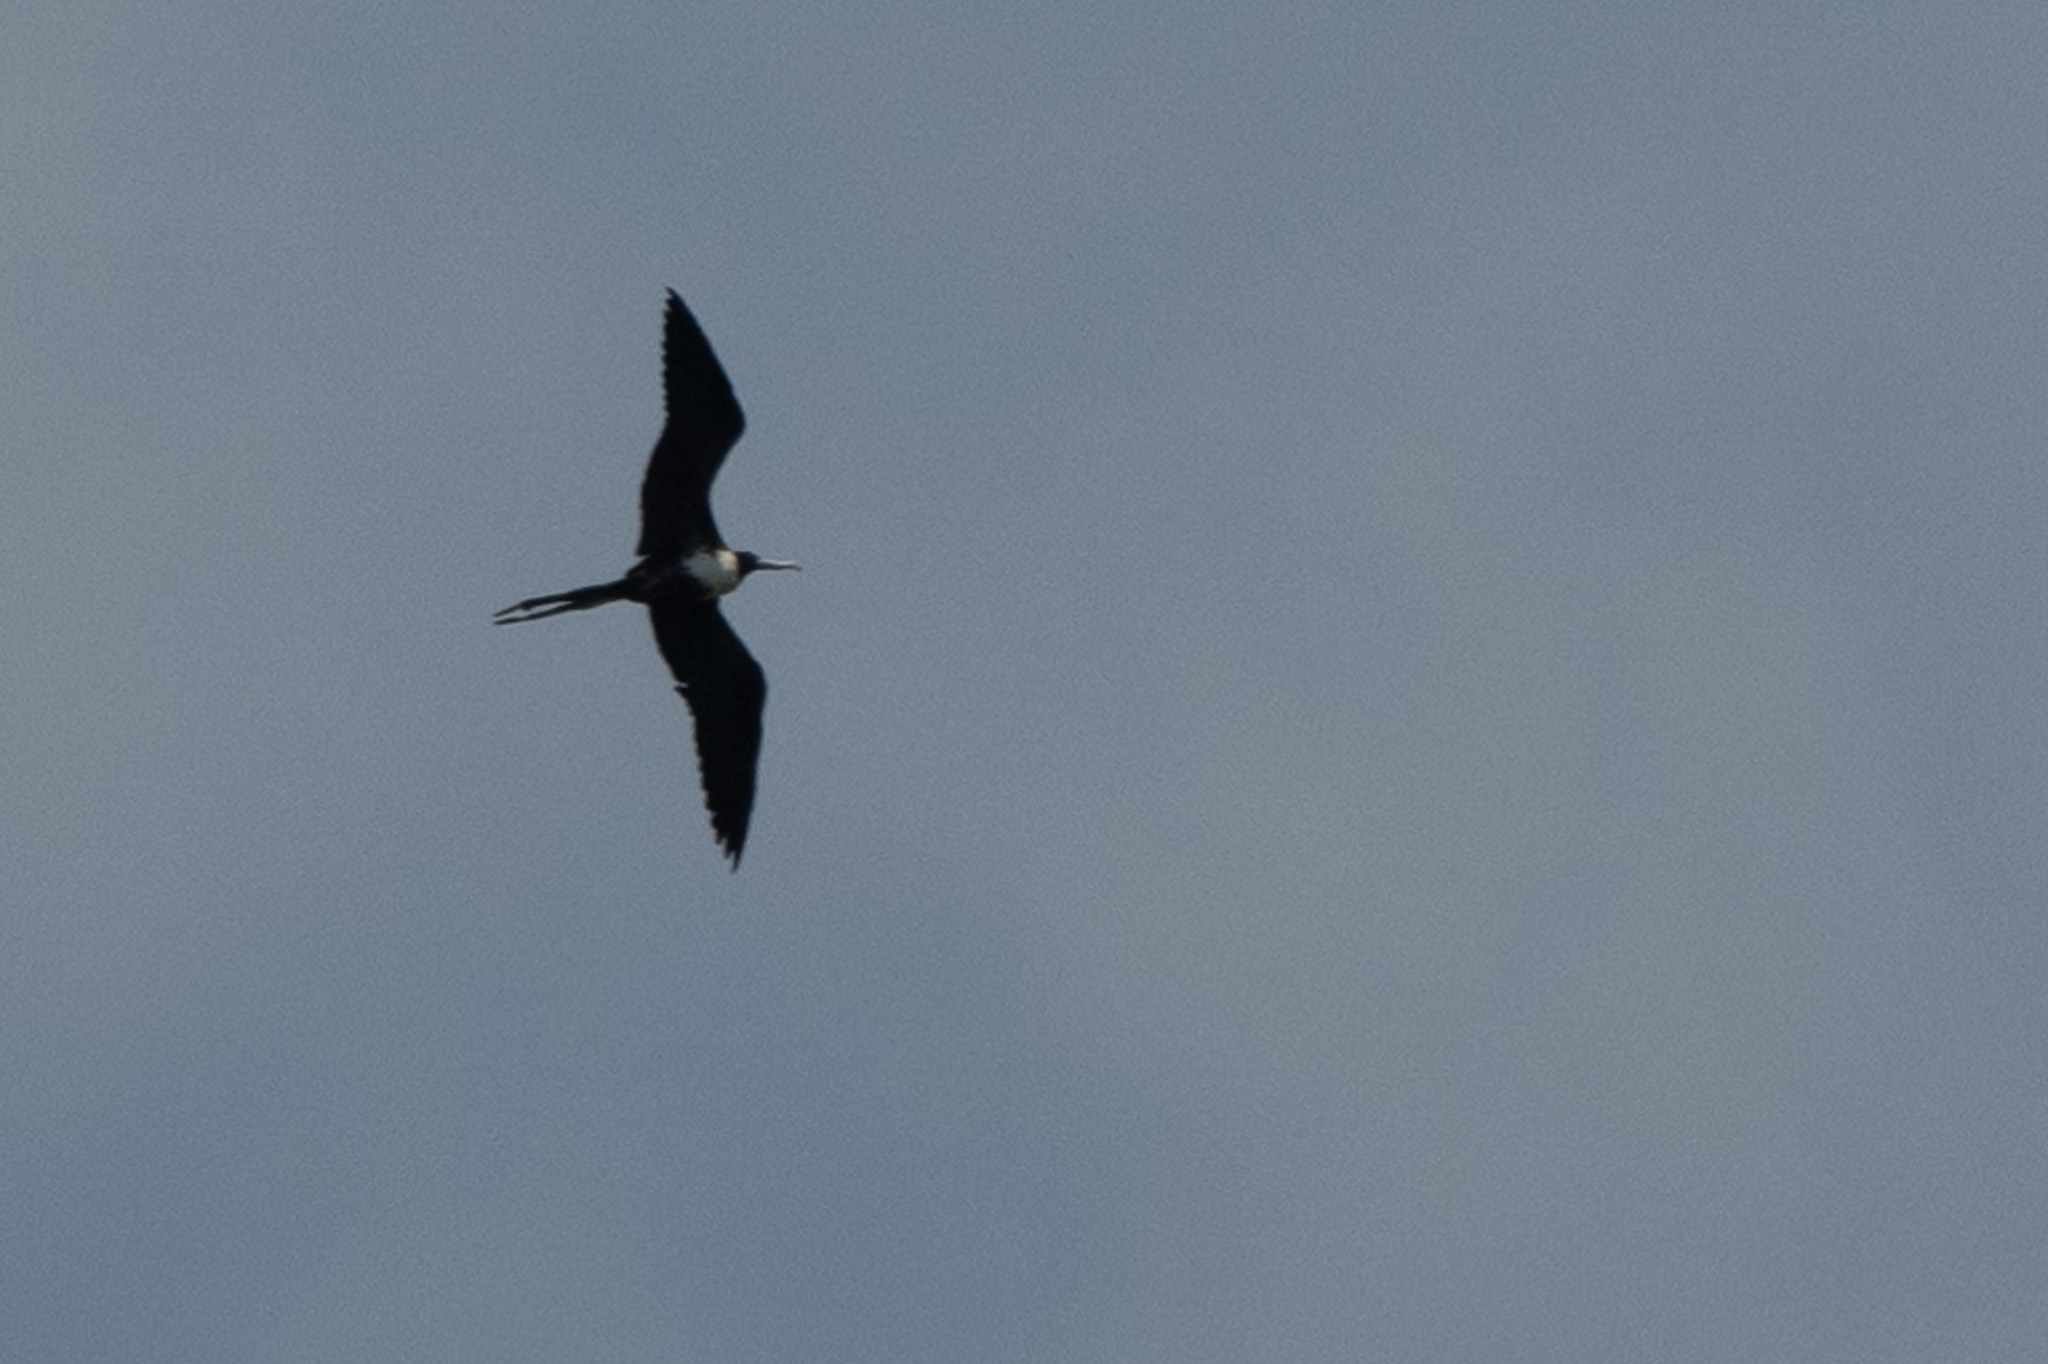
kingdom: Animalia
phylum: Chordata
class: Aves
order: Suliformes
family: Fregatidae
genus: Fregata
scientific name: Fregata magnificens
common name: Magnificent frigatebird
